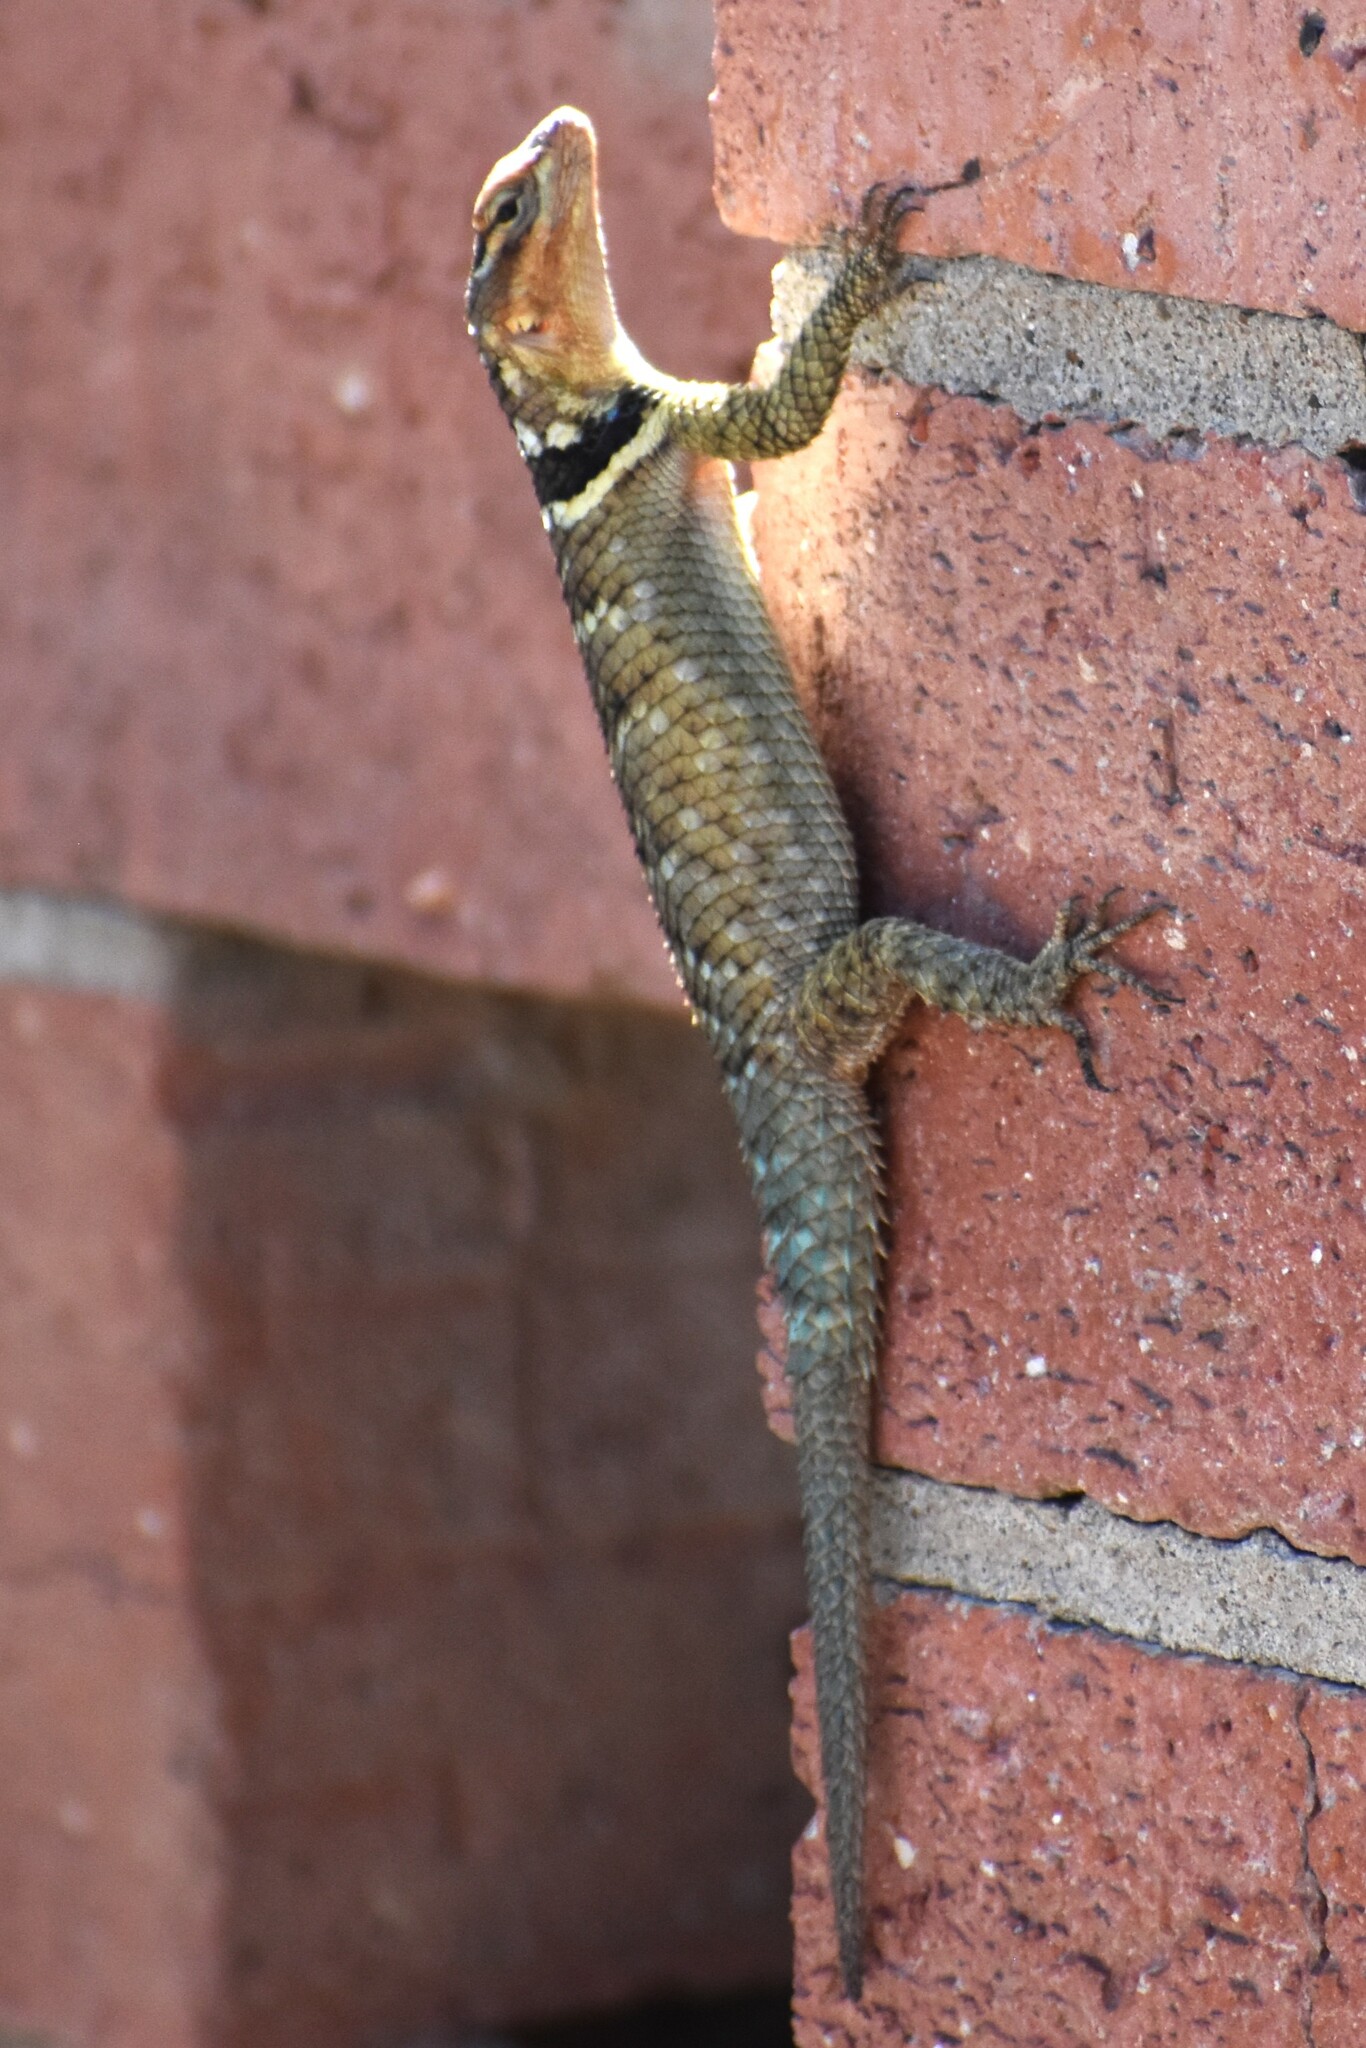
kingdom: Animalia
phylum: Chordata
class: Squamata
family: Phrynosomatidae
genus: Sceloporus
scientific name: Sceloporus cyanogenys
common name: Blue spiny lizard
